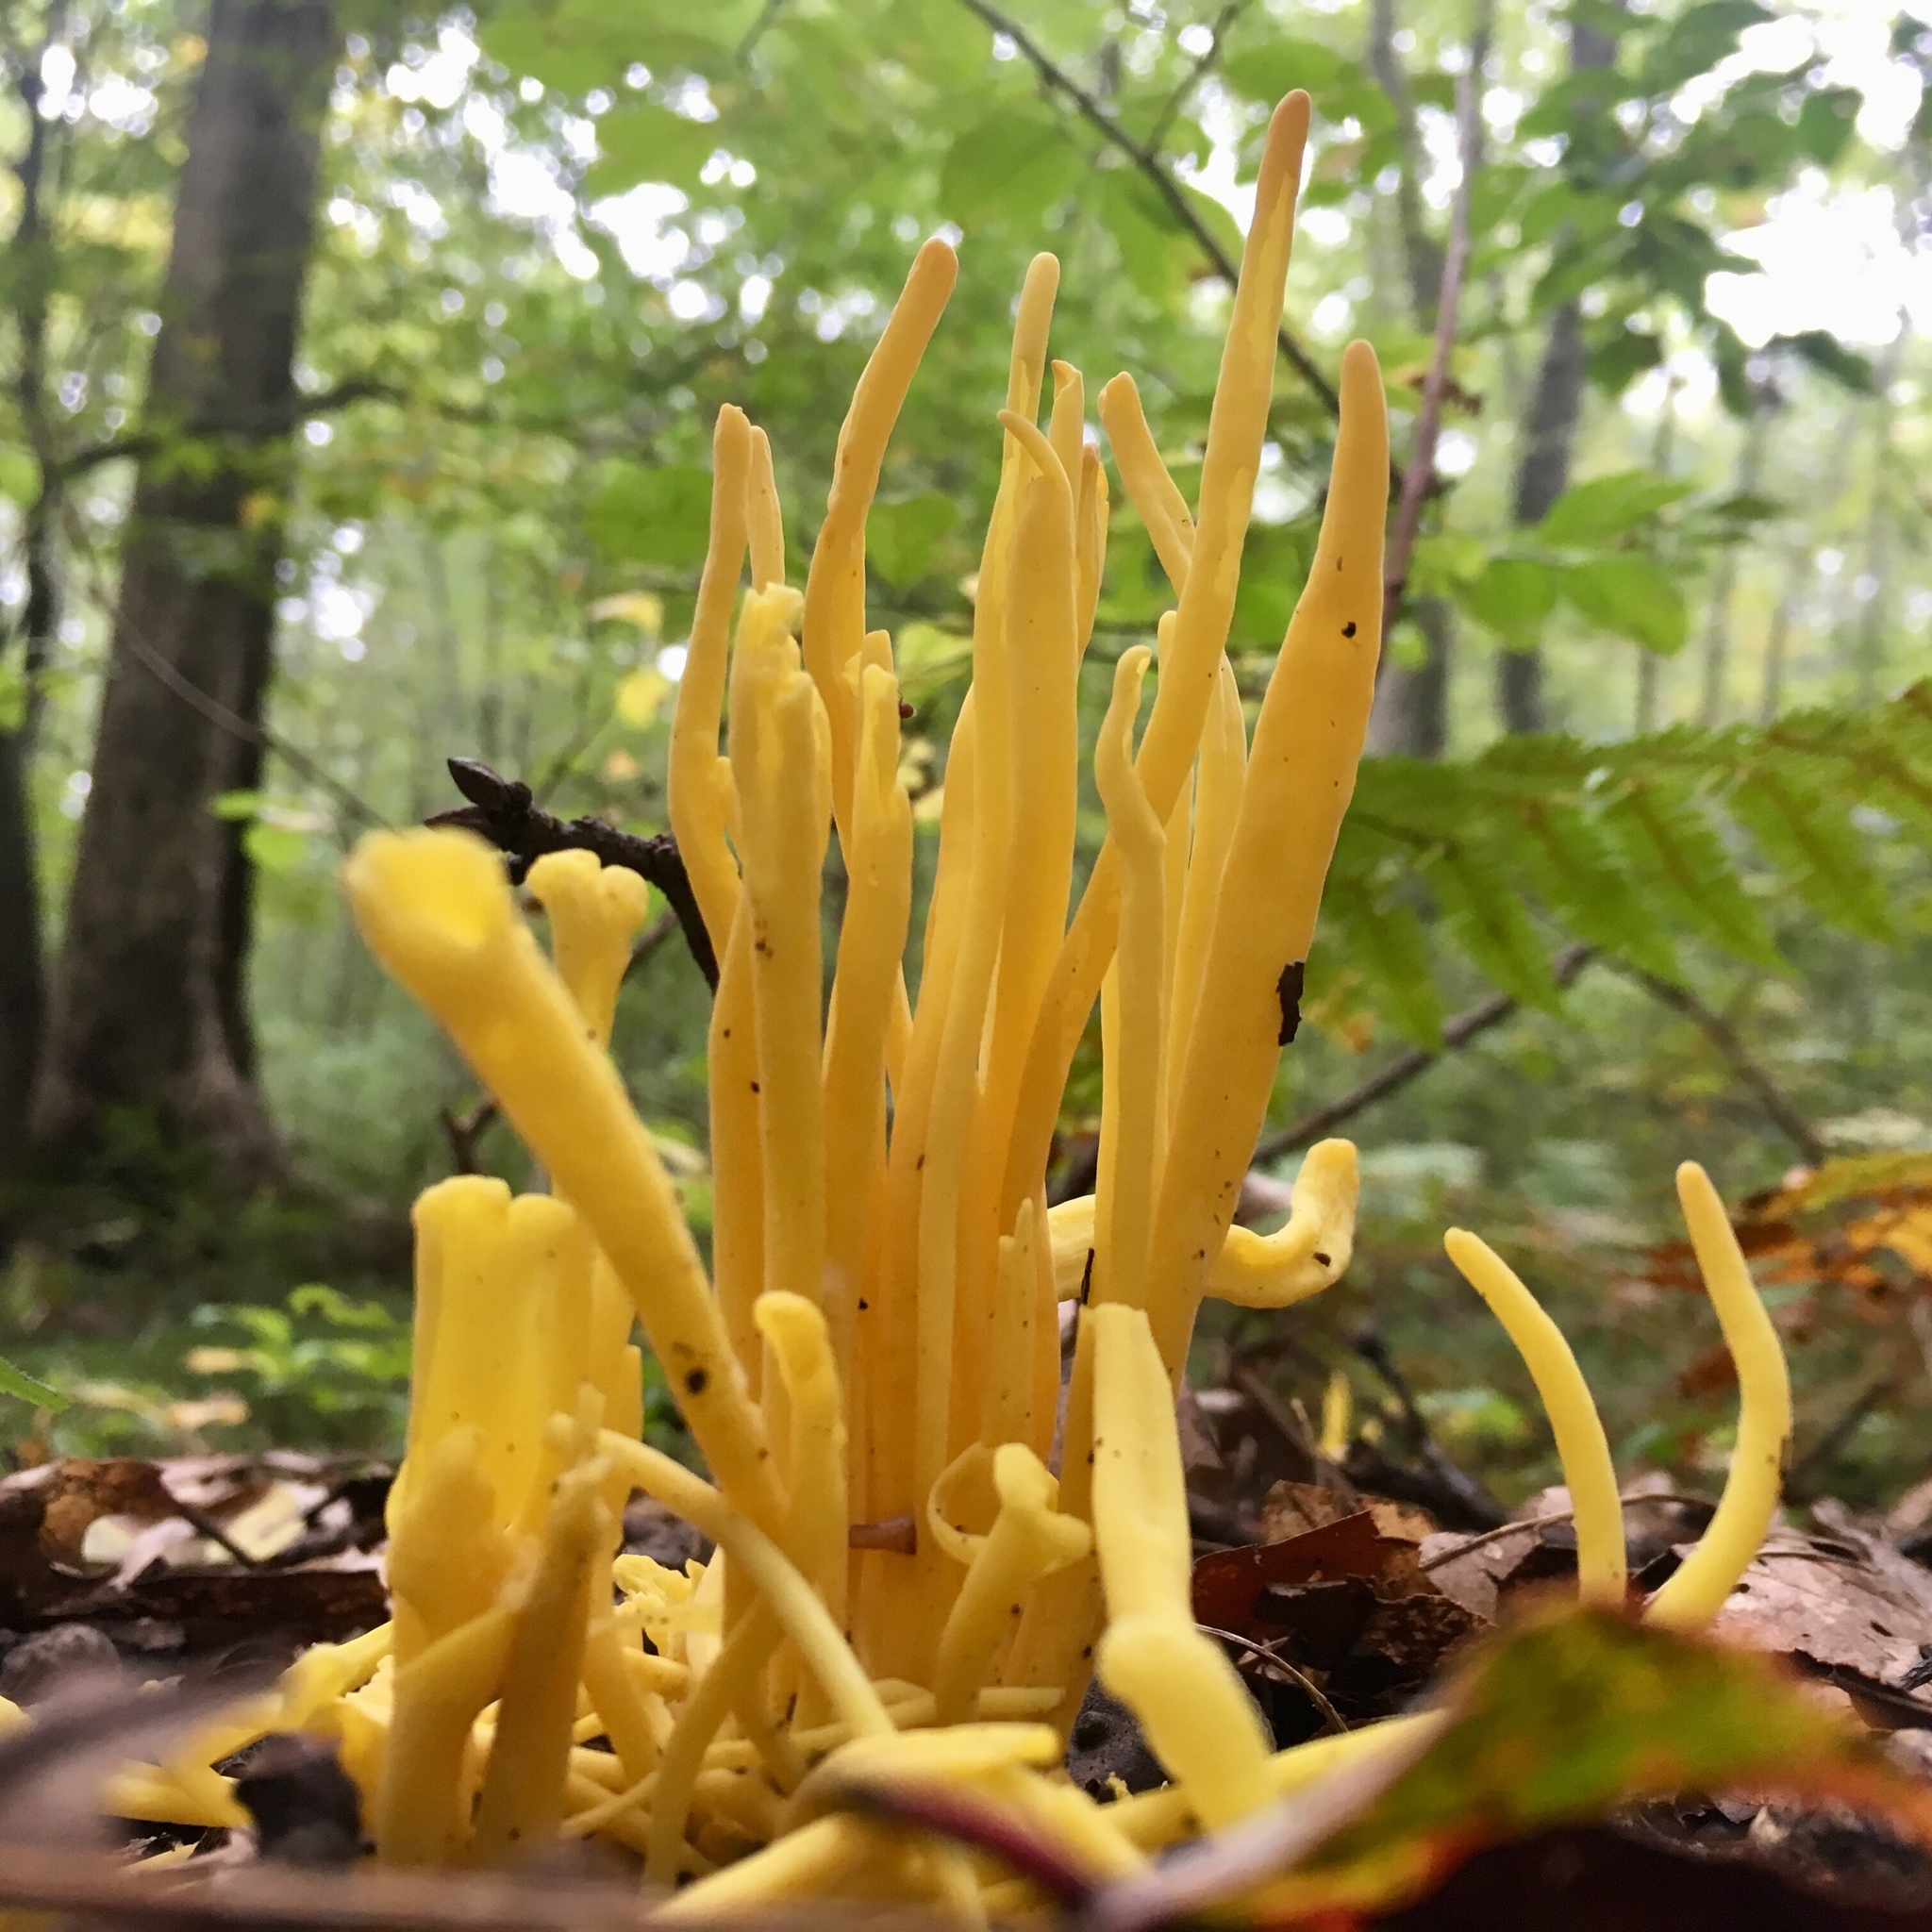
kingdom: Fungi
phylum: Basidiomycota
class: Agaricomycetes
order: Agaricales
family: Clavariaceae
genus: Clavulinopsis
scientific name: Clavulinopsis fusiformis
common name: Golden spindles
